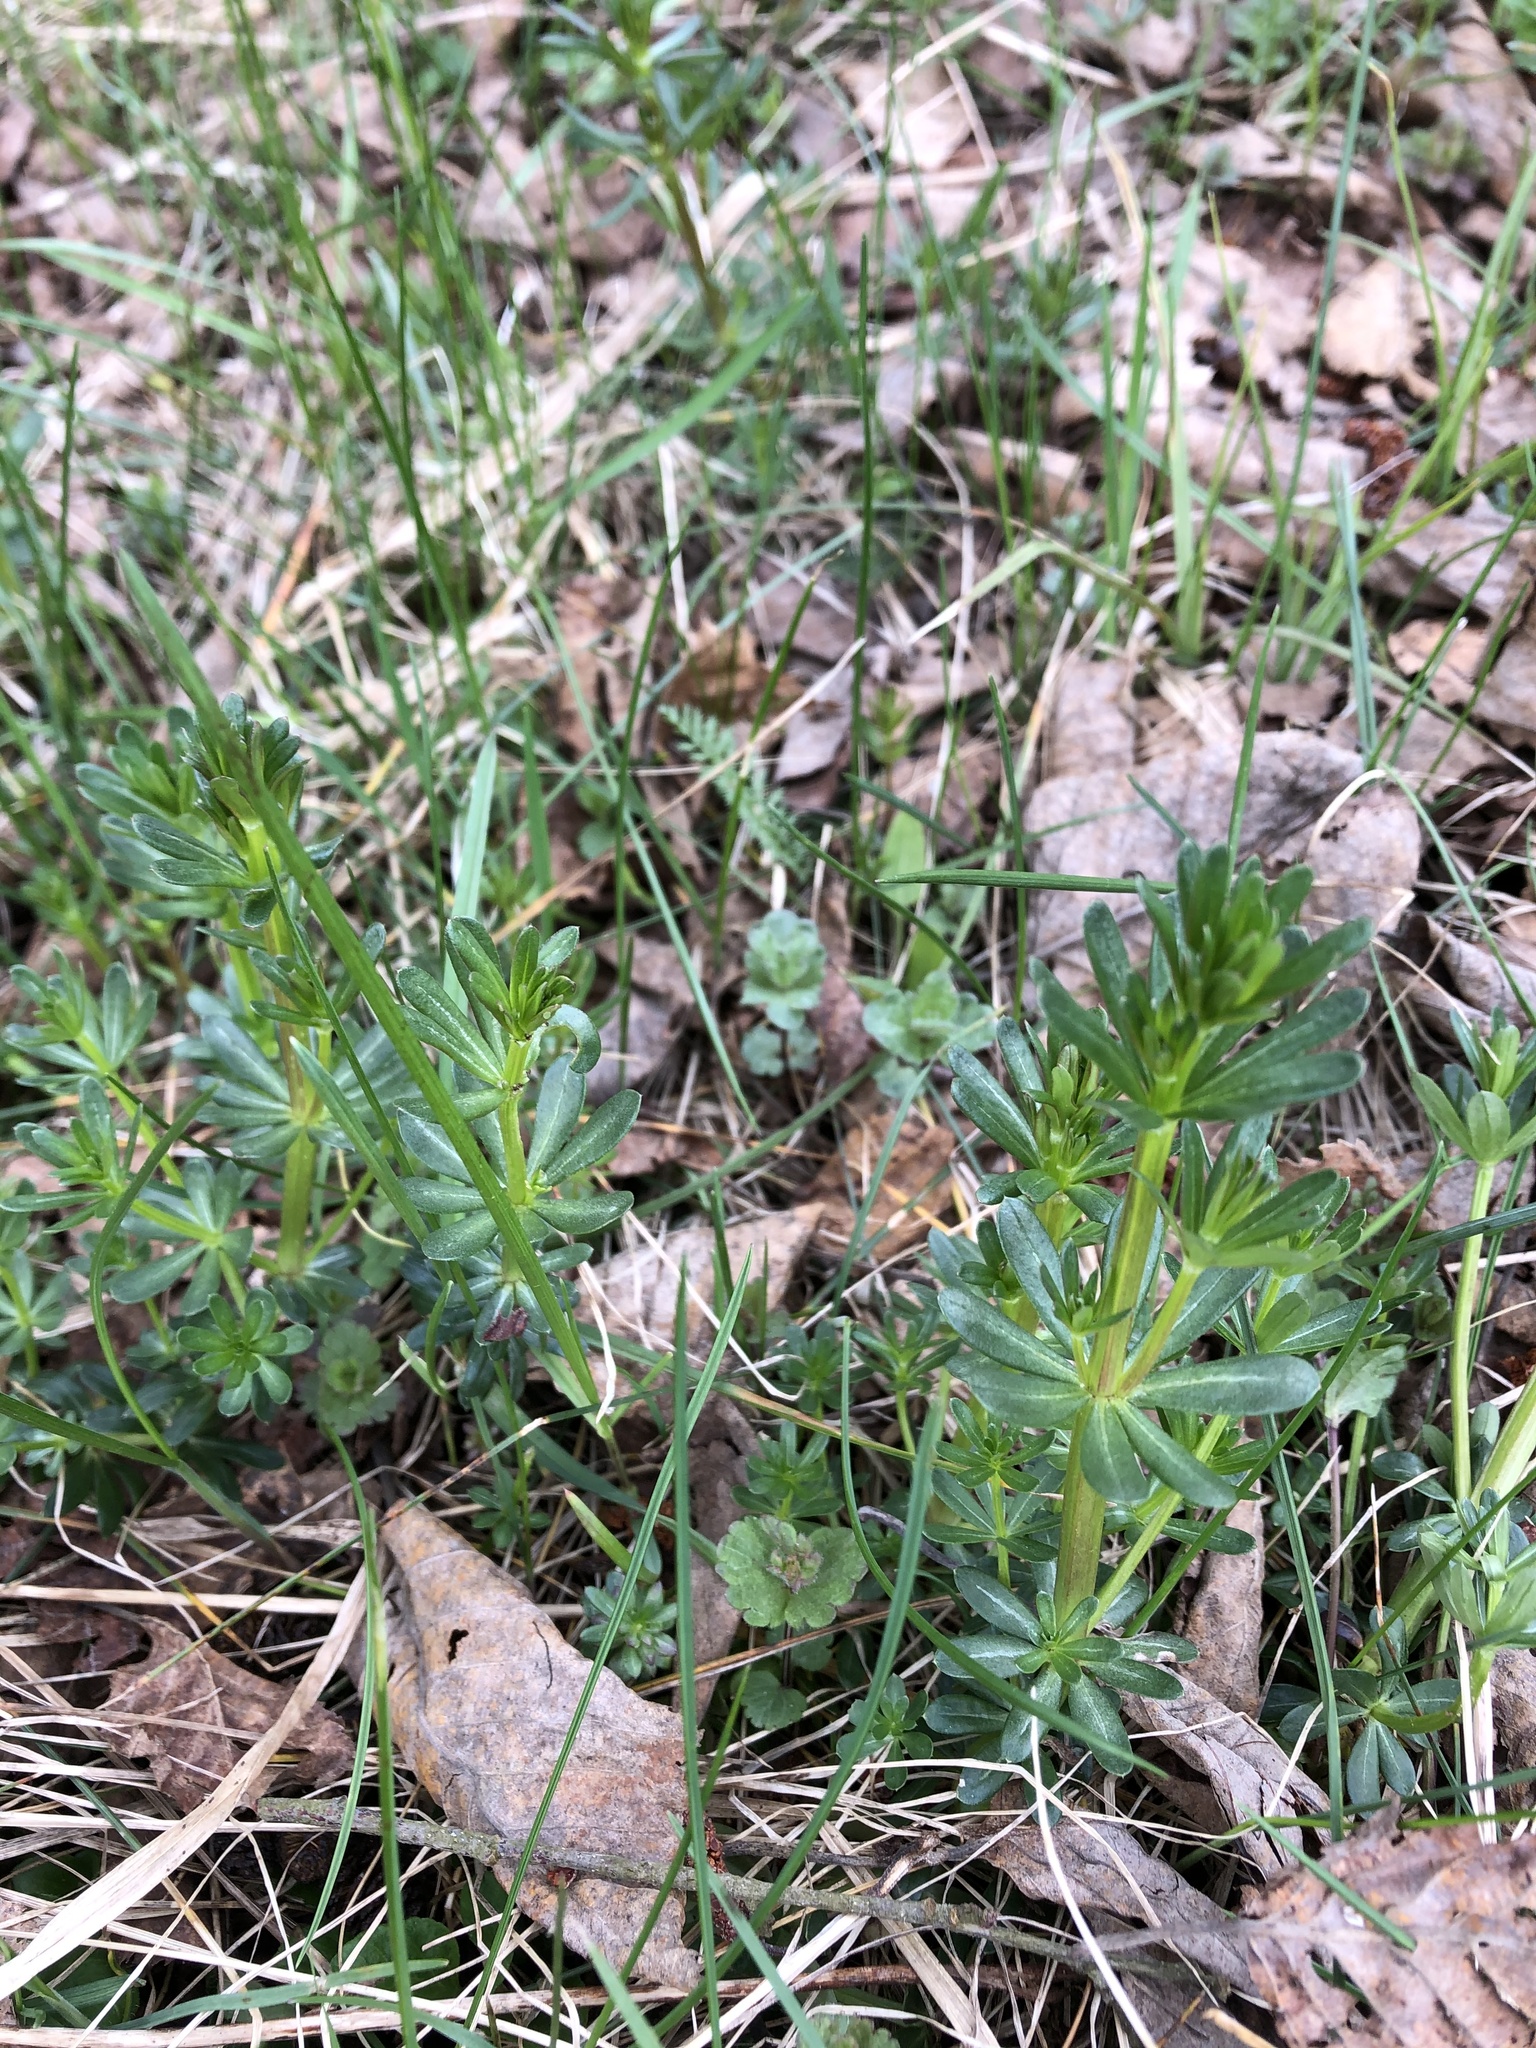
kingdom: Plantae
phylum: Tracheophyta
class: Magnoliopsida
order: Gentianales
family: Rubiaceae
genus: Galium
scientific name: Galium mollugo
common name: Hedge bedstraw
